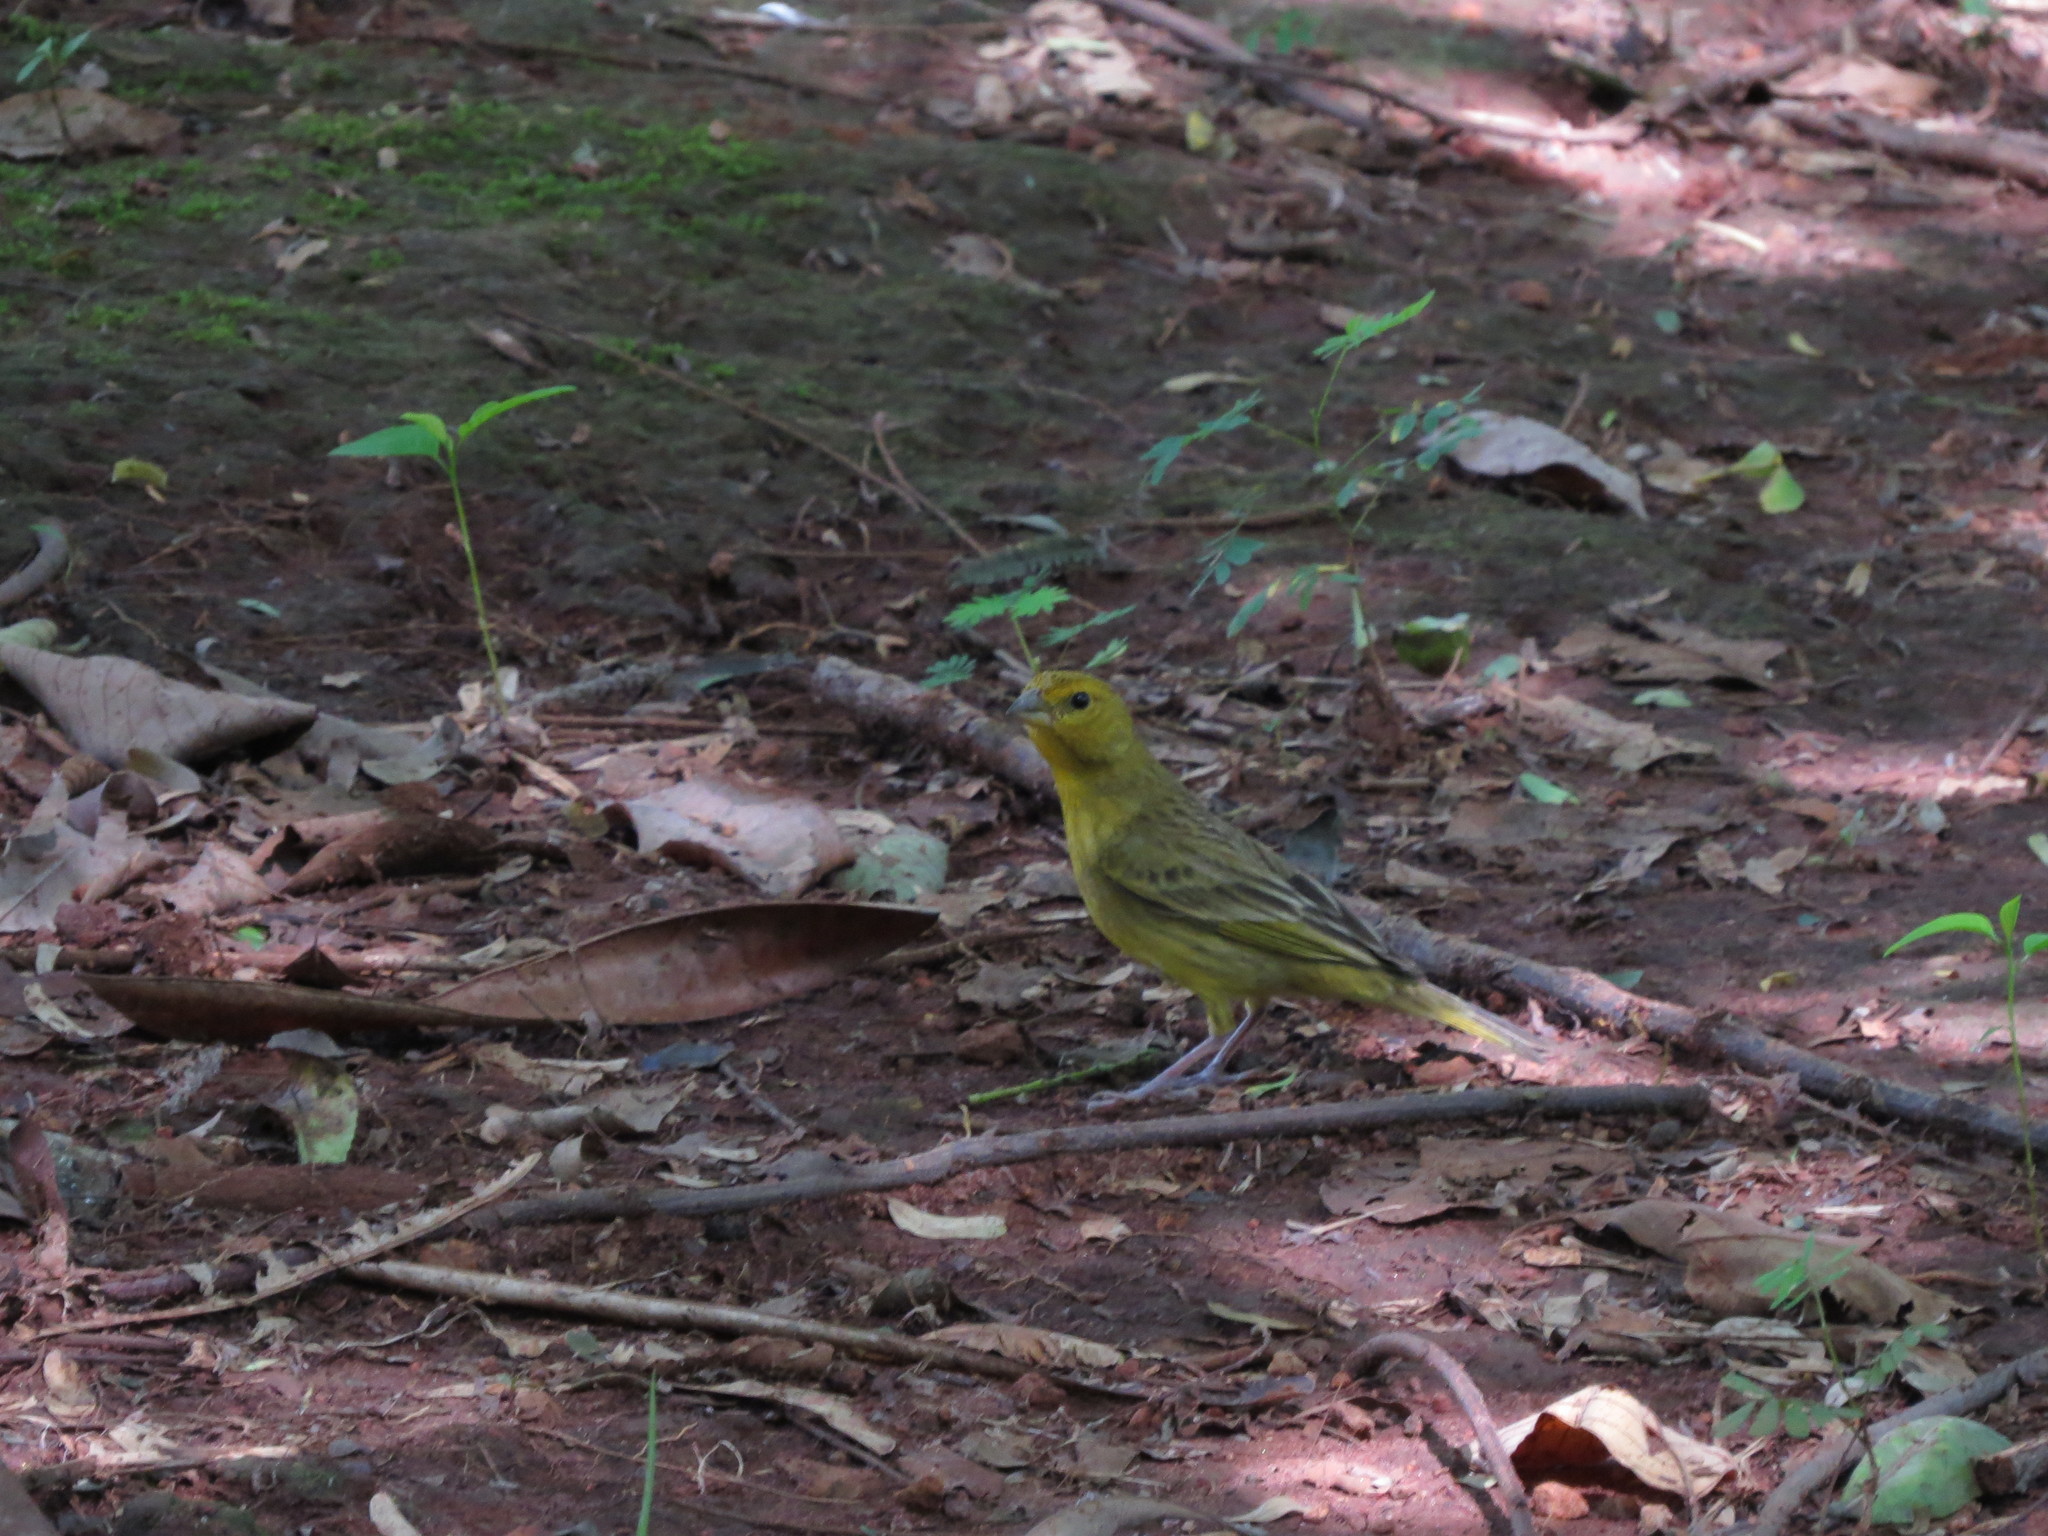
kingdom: Animalia
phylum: Chordata
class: Aves
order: Passeriformes
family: Thraupidae
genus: Sicalis
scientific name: Sicalis flaveola
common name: Saffron finch
